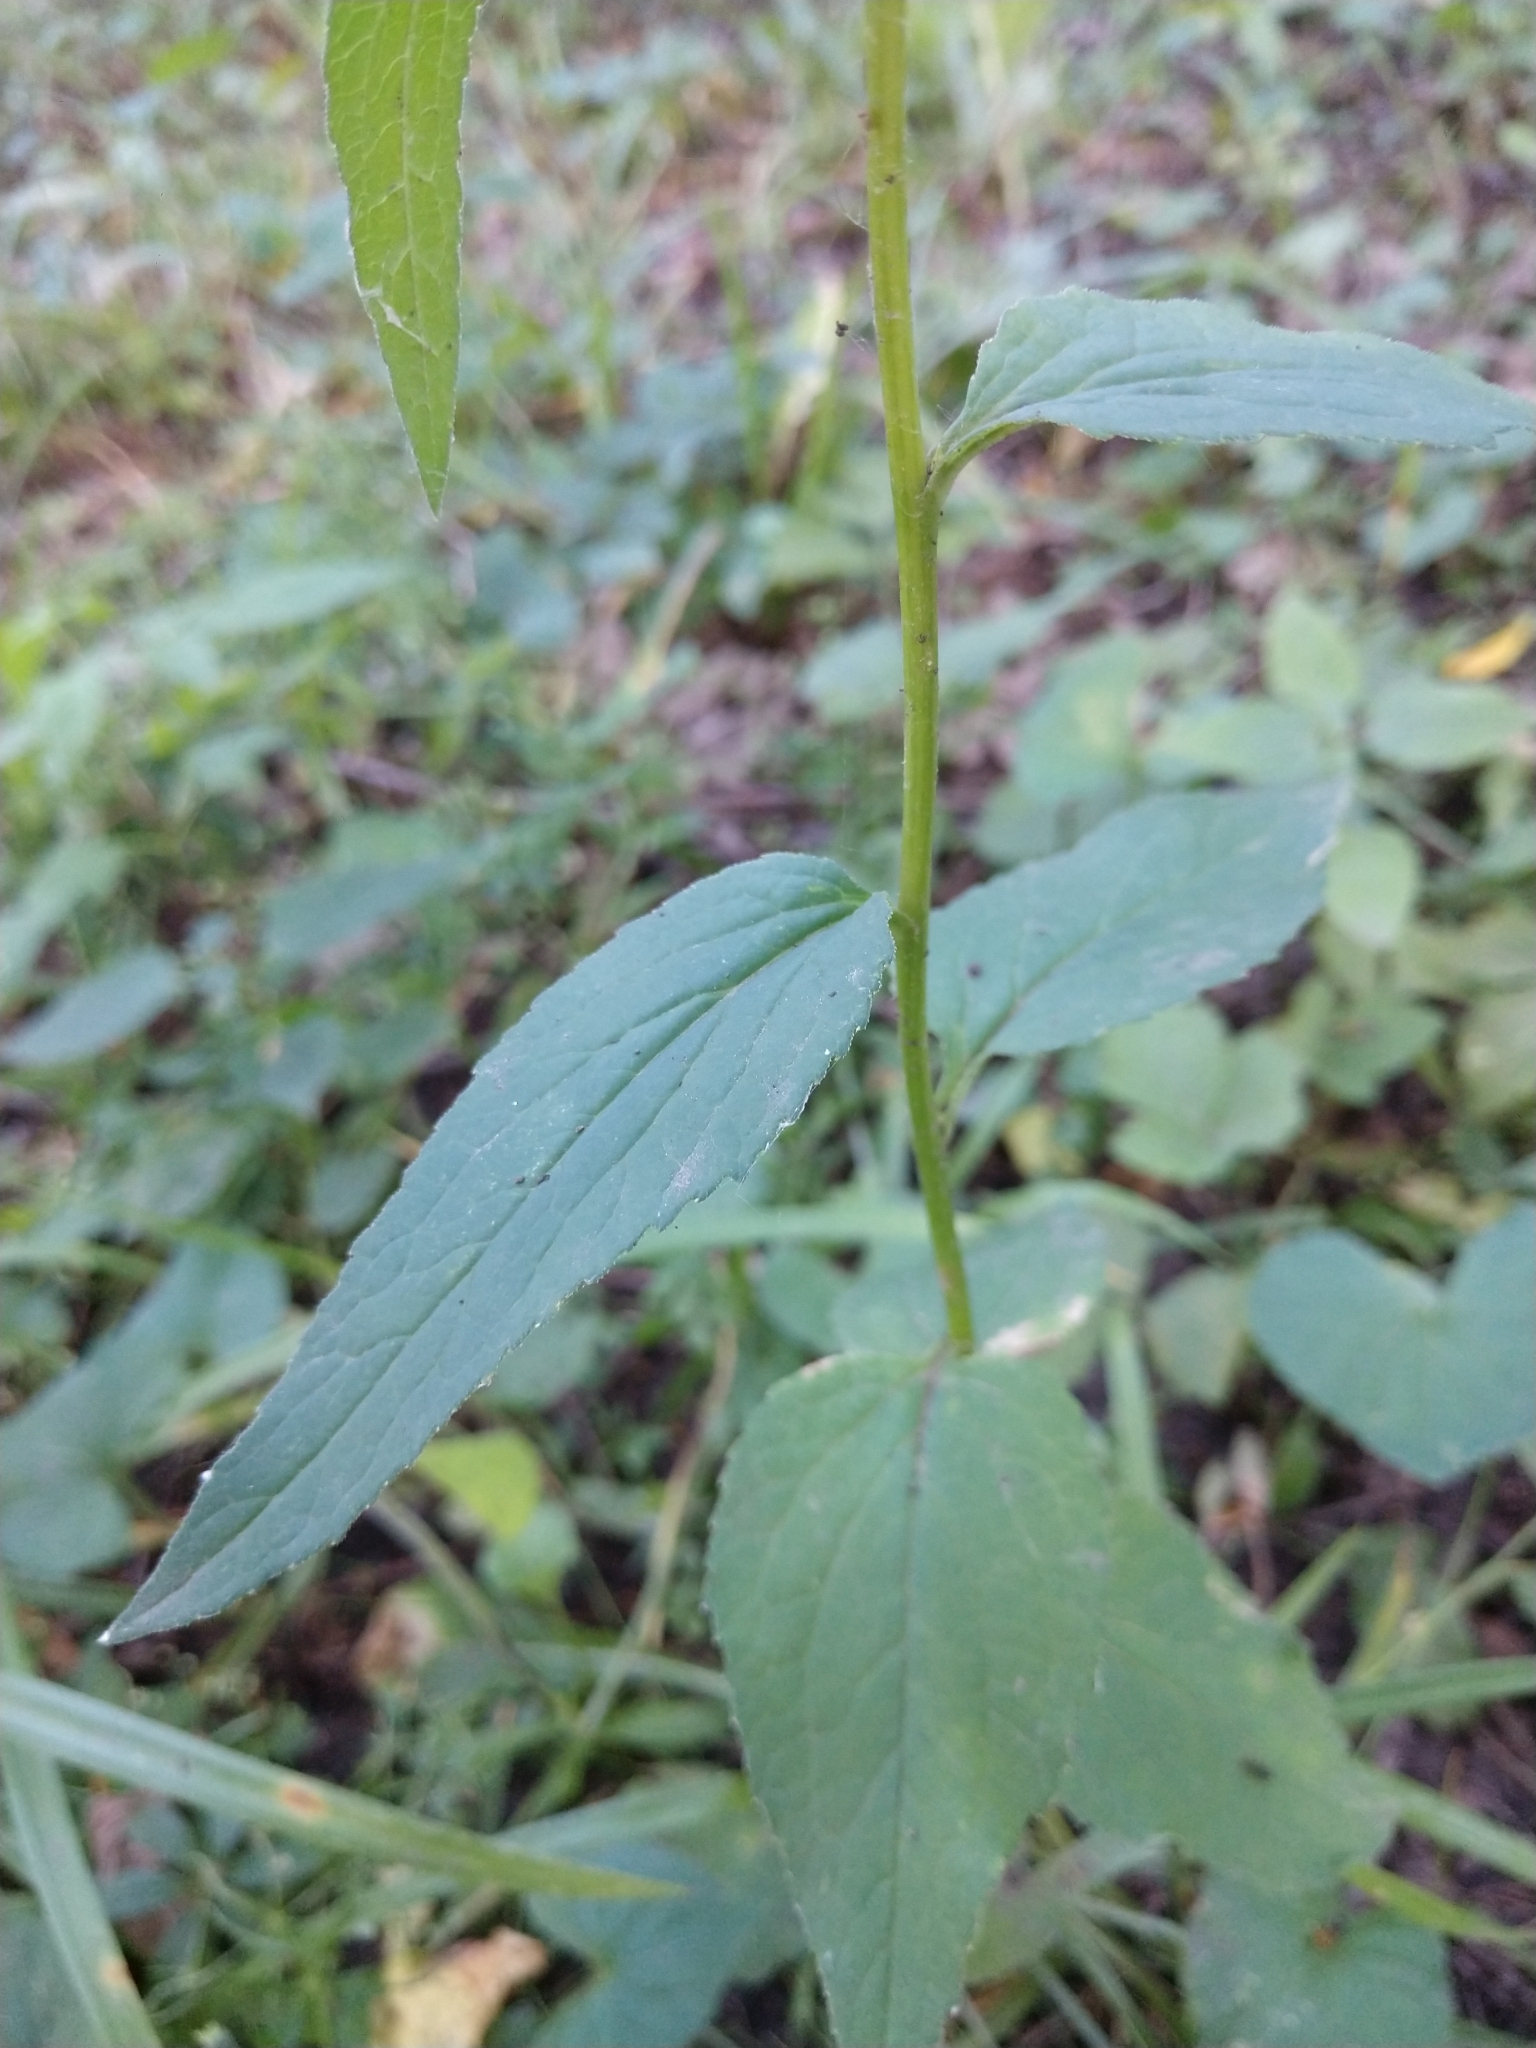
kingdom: Plantae
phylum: Tracheophyta
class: Magnoliopsida
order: Asterales
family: Campanulaceae
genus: Campanula
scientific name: Campanula rapunculoides
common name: Creeping bellflower
